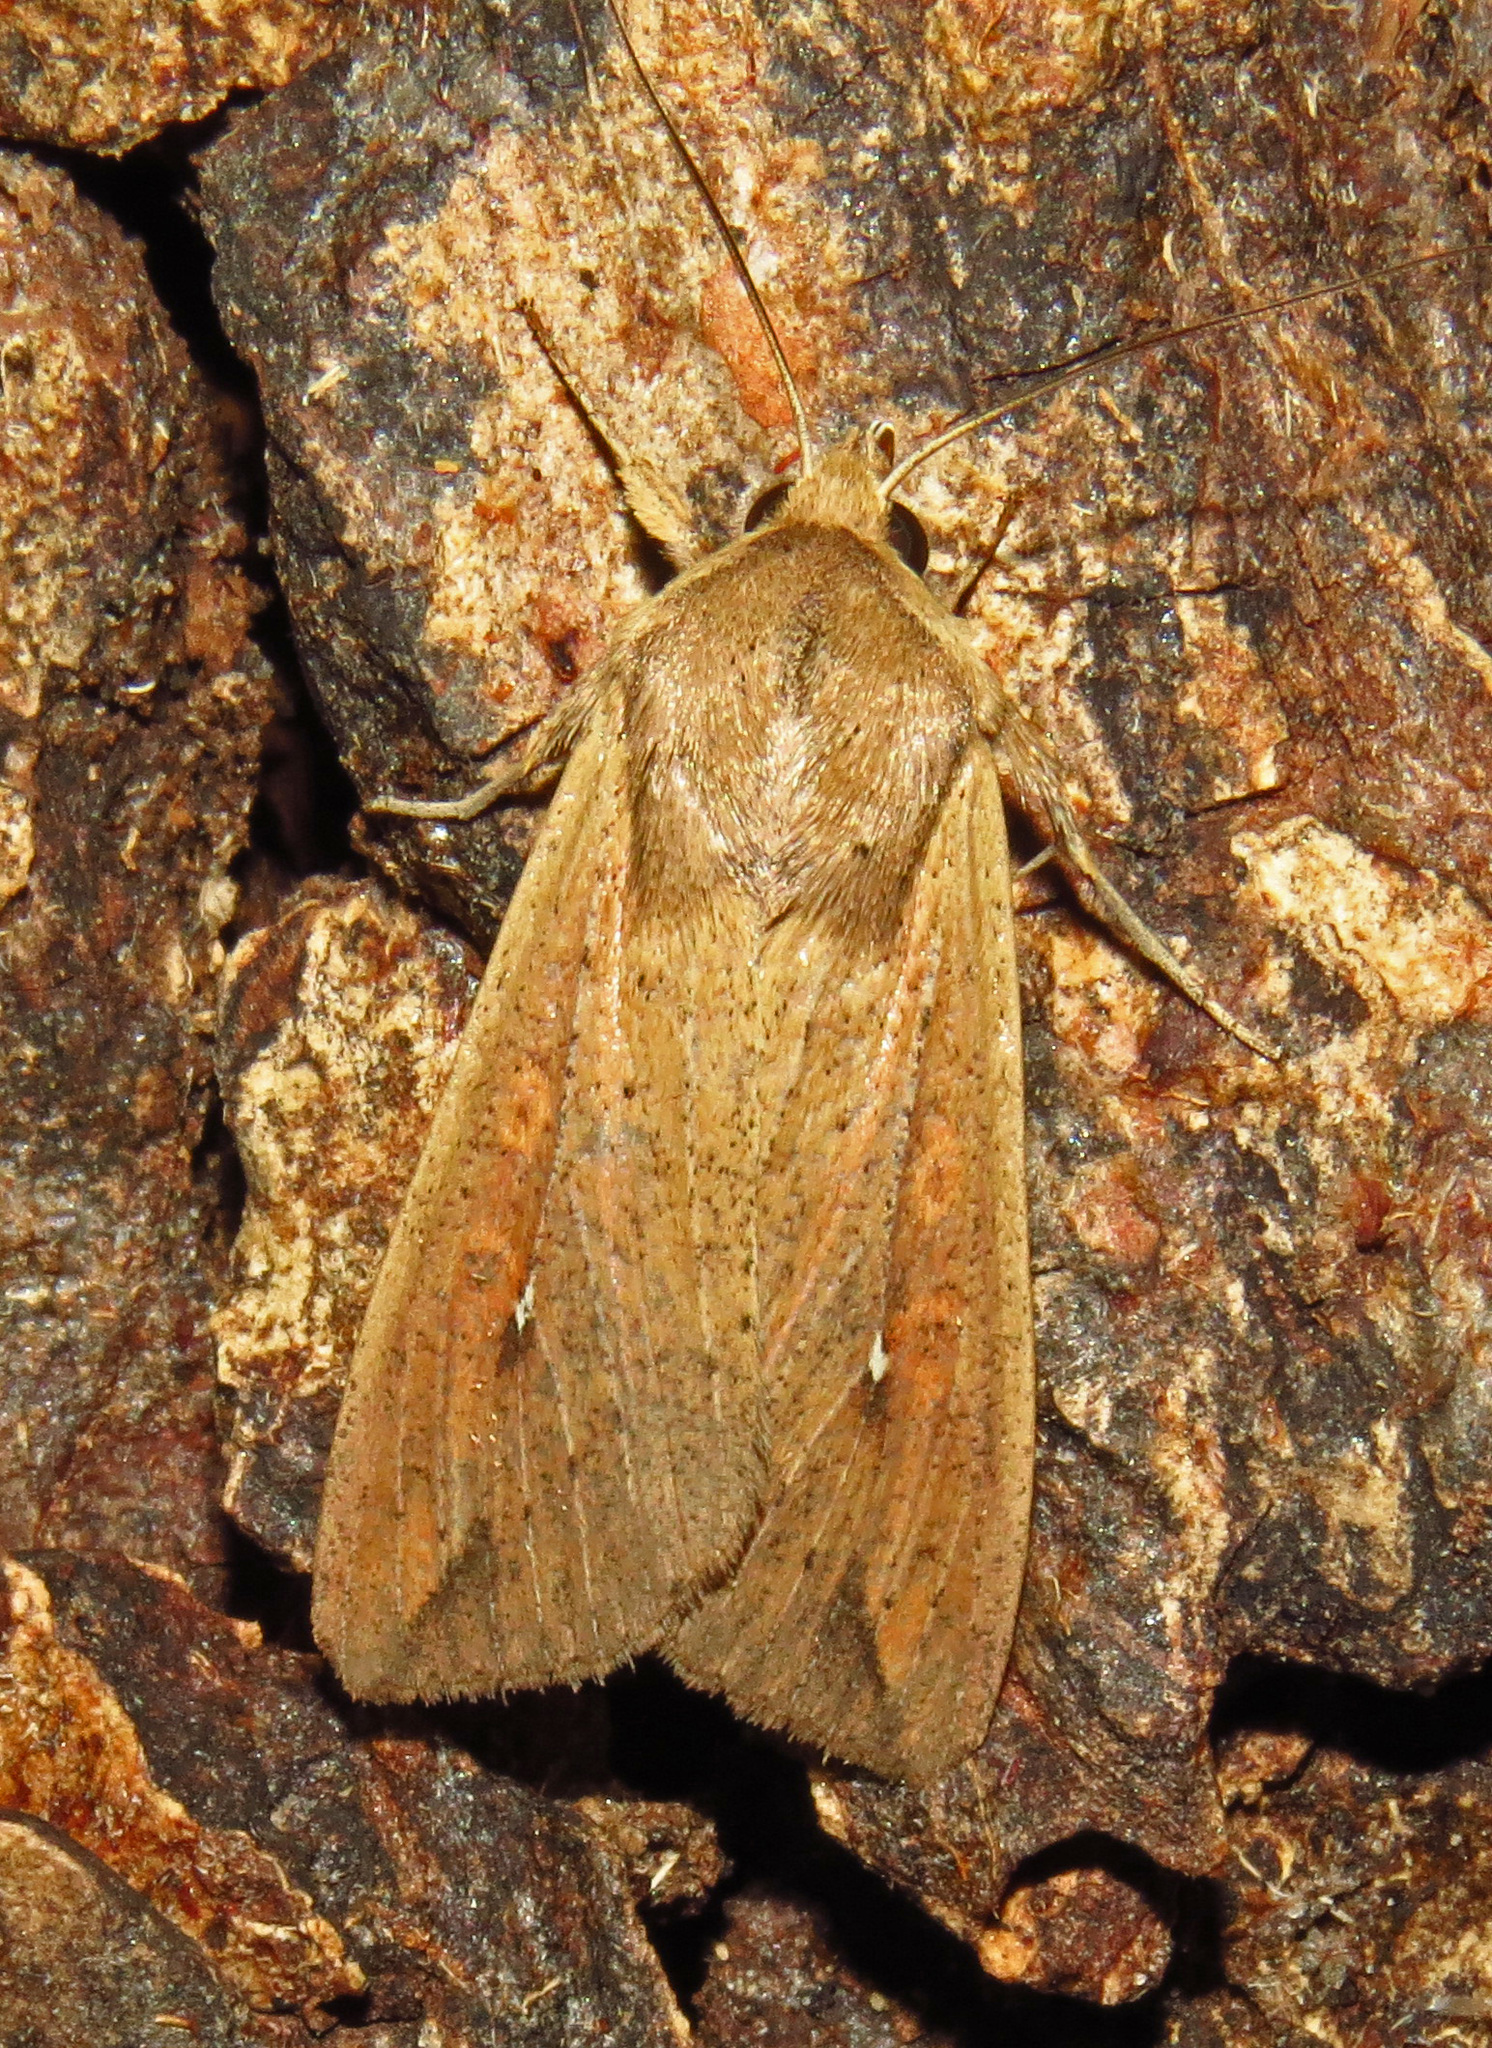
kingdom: Animalia
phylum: Arthropoda
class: Insecta
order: Lepidoptera
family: Noctuidae
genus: Mythimna
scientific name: Mythimna unipuncta
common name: White-speck
